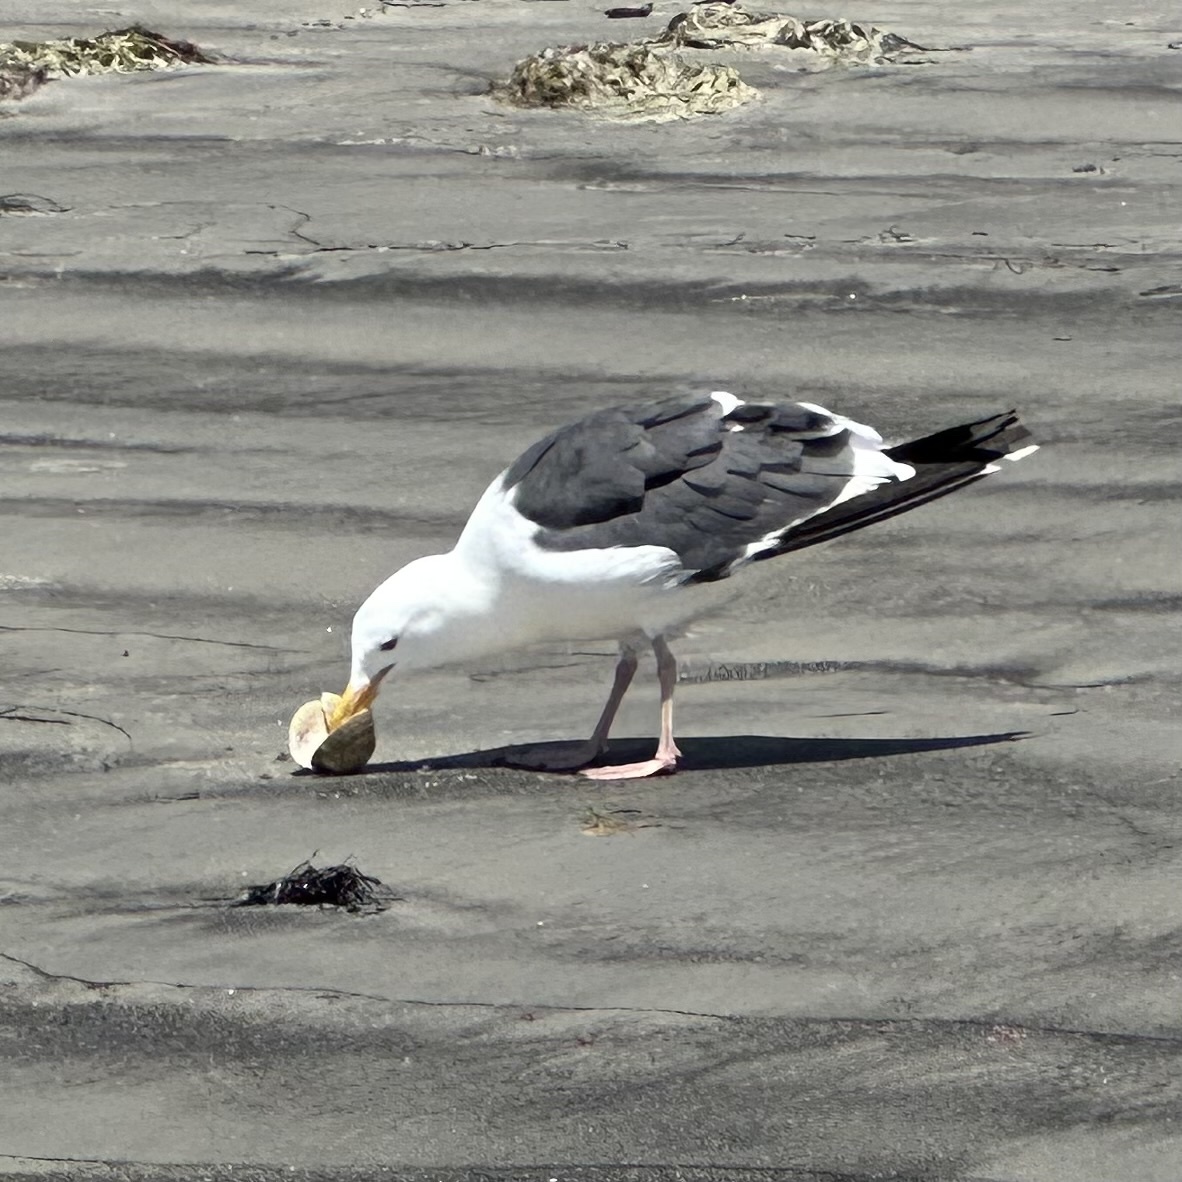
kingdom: Animalia
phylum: Chordata
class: Aves
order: Charadriiformes
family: Laridae
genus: Larus
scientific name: Larus occidentalis
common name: Western gull
